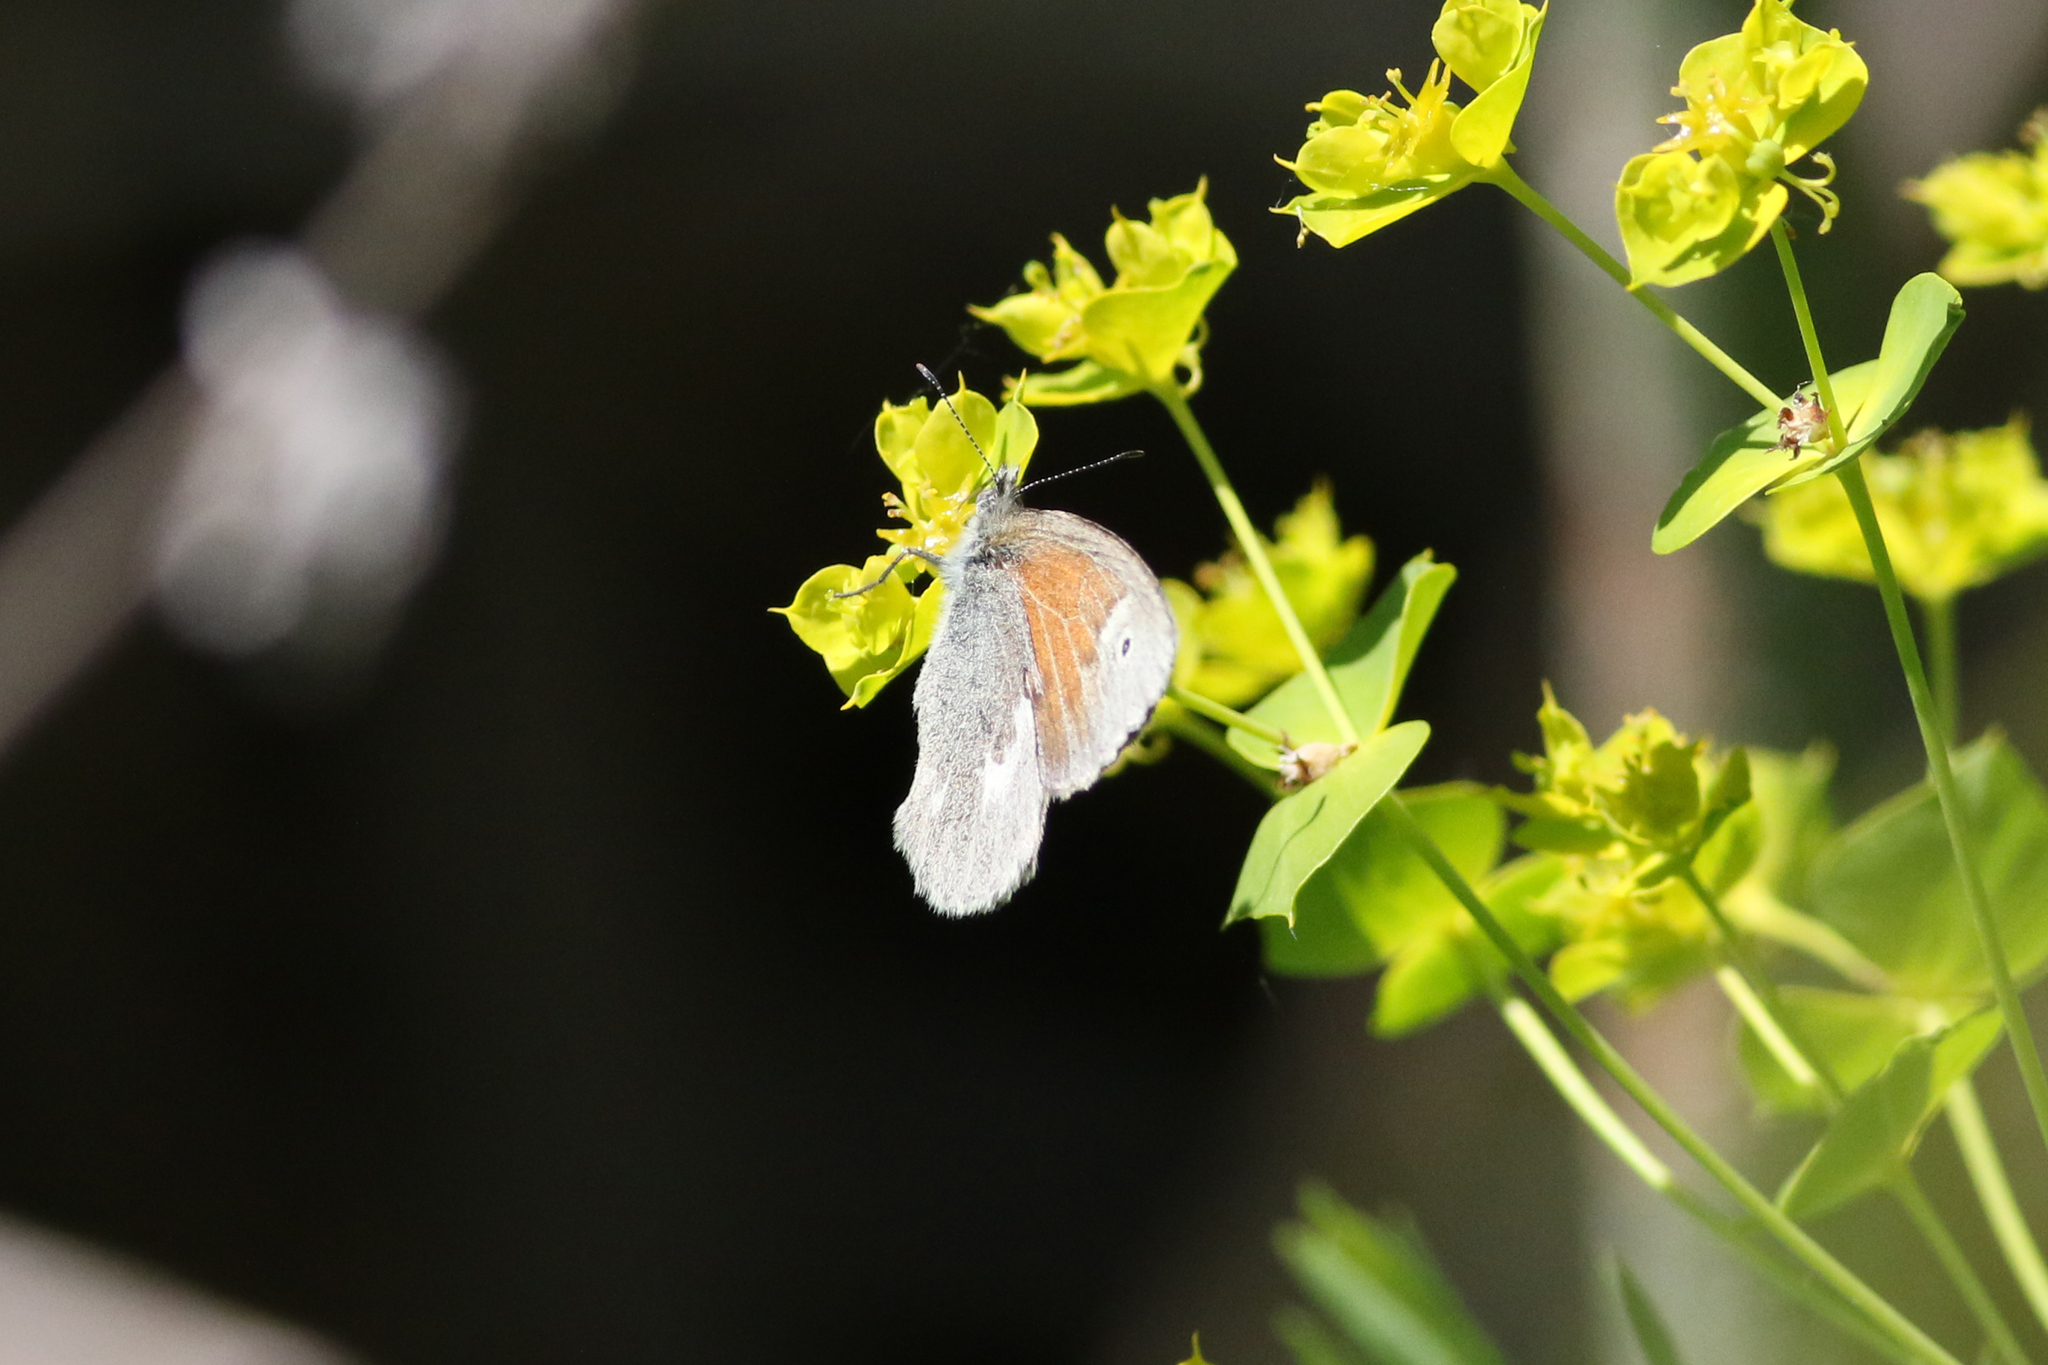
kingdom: Animalia
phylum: Arthropoda
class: Insecta
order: Lepidoptera
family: Nymphalidae
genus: Coenonympha
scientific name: Coenonympha california
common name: Common ringlet
